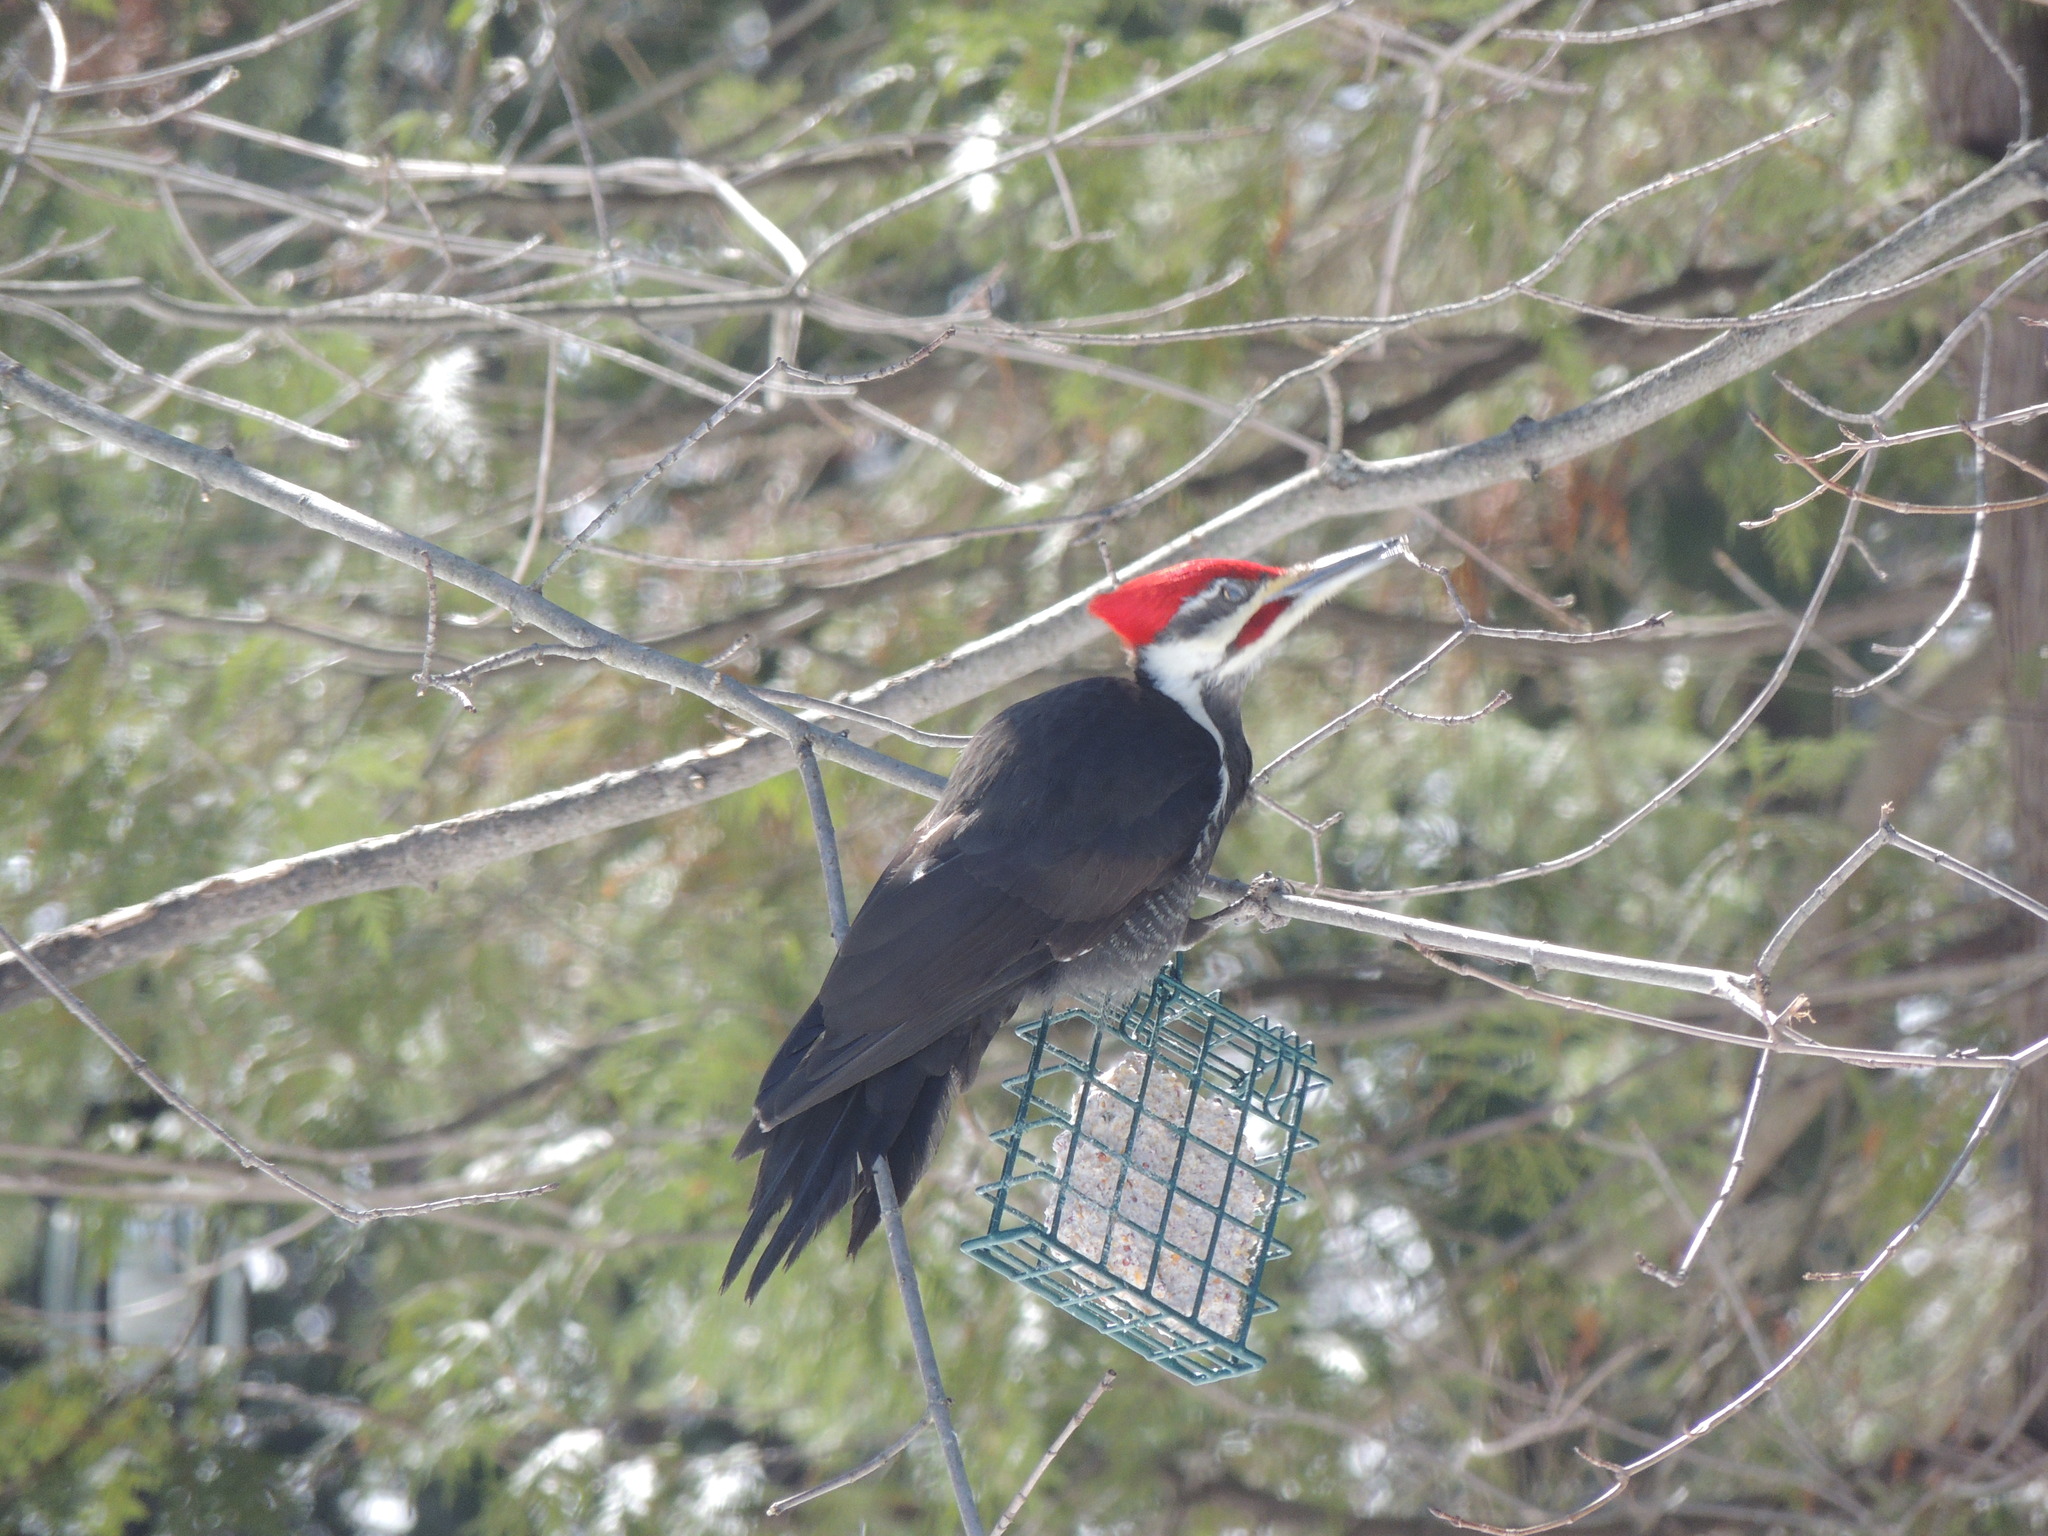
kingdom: Animalia
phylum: Chordata
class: Aves
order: Piciformes
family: Picidae
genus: Dryocopus
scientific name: Dryocopus pileatus
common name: Pileated woodpecker
